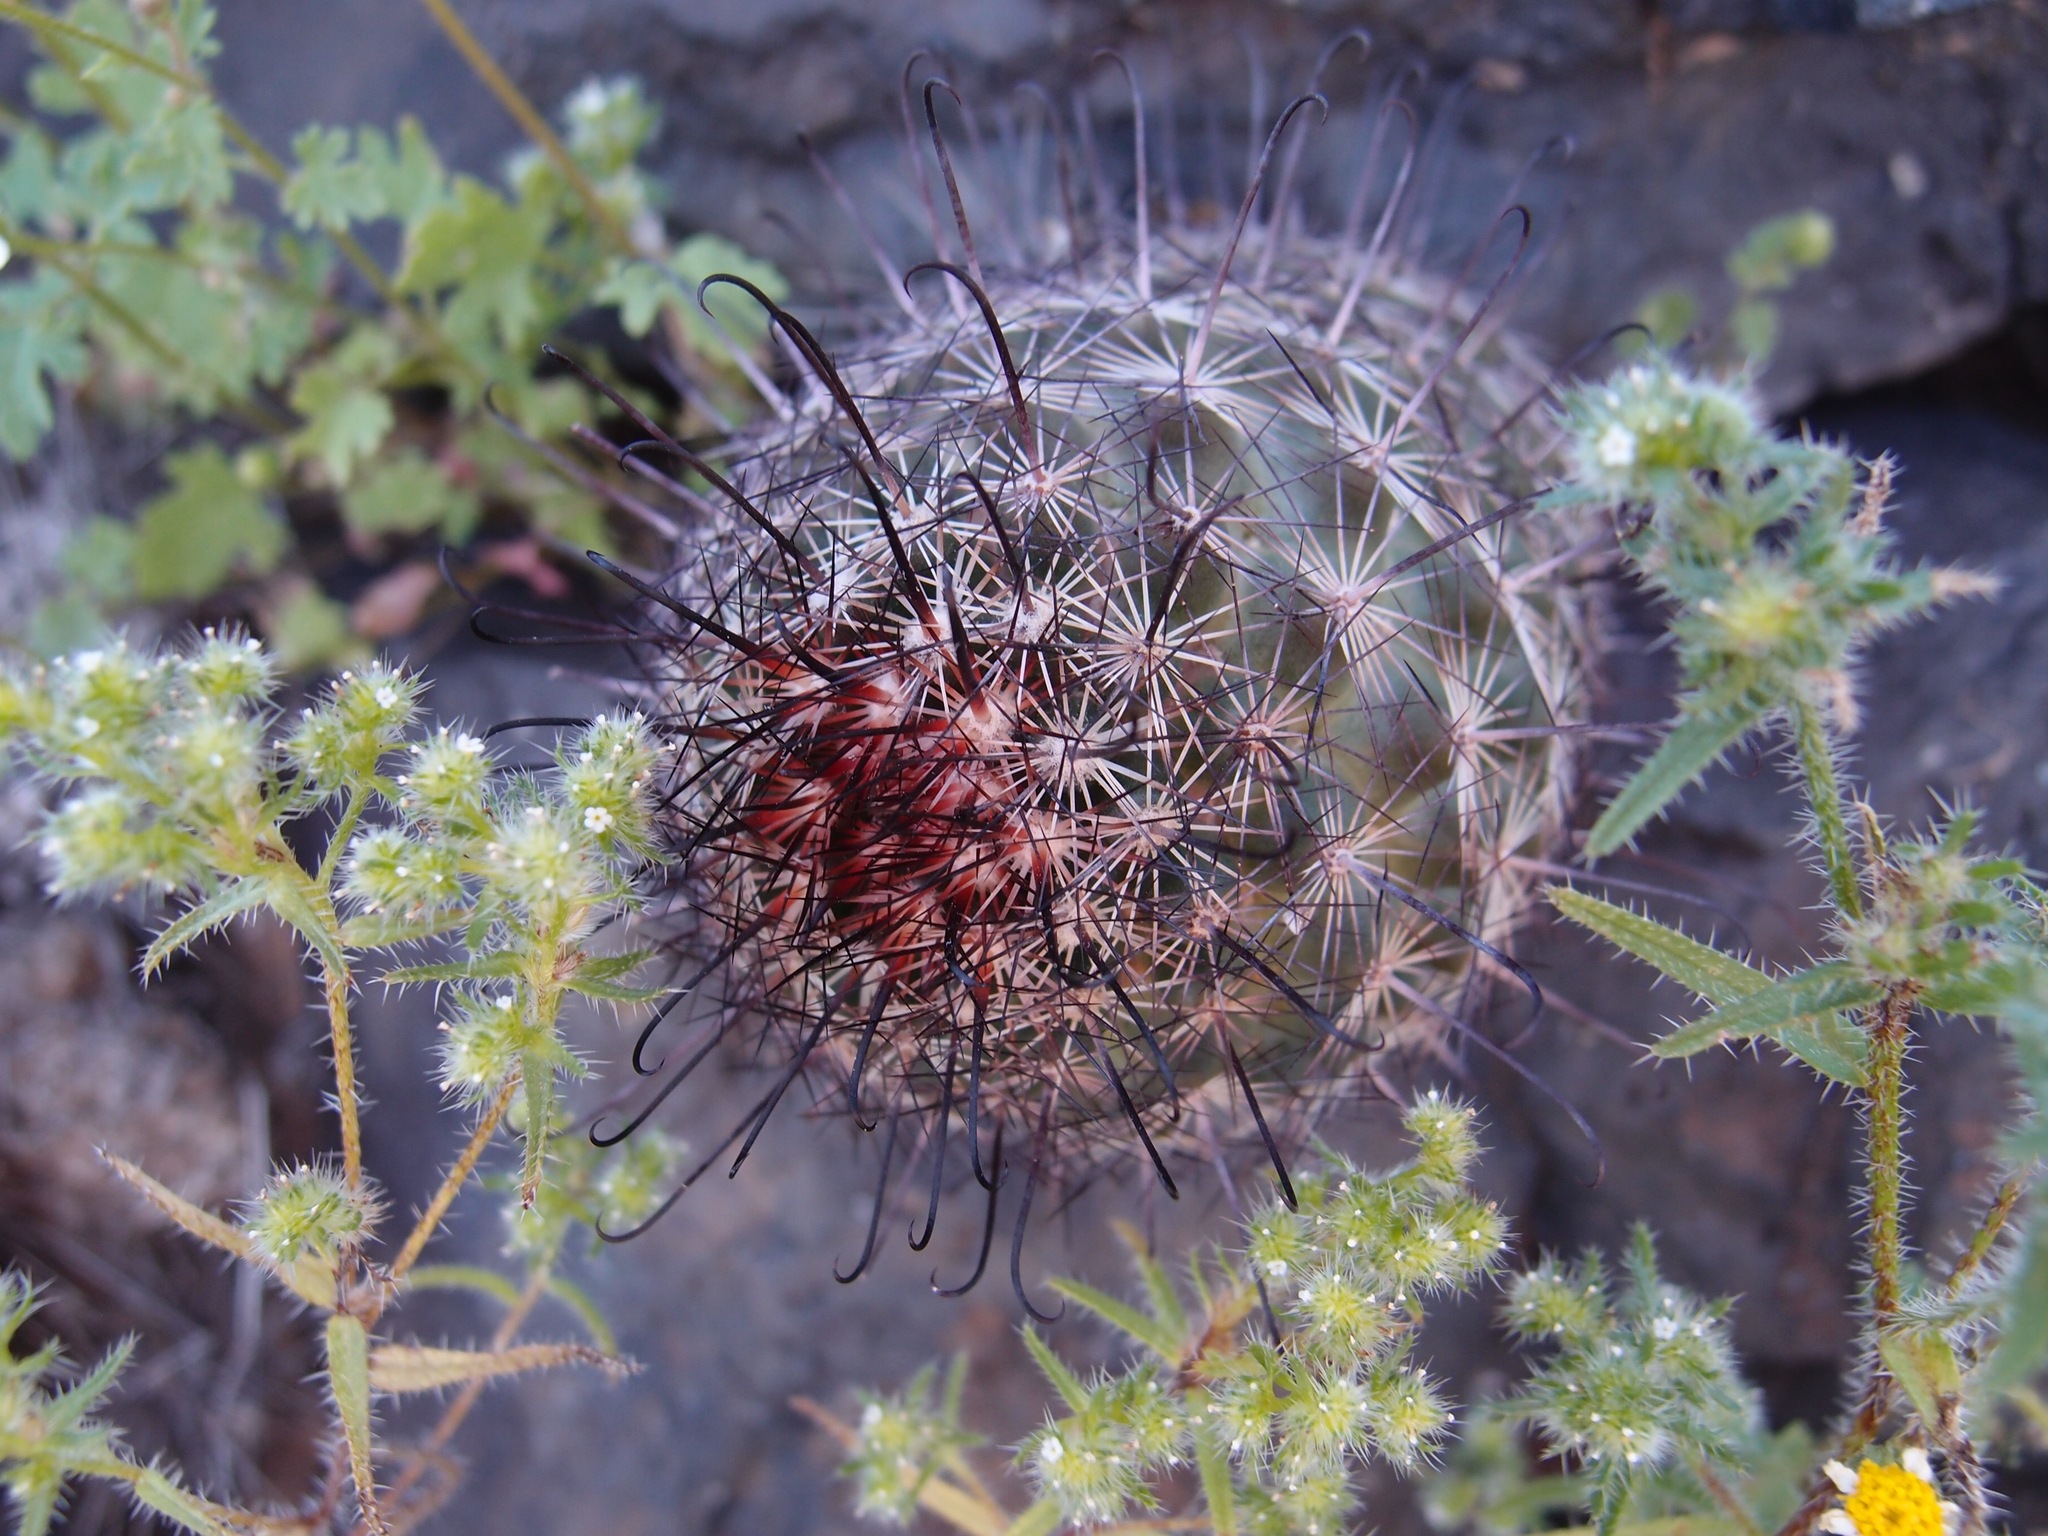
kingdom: Plantae
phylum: Tracheophyta
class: Magnoliopsida
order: Caryophyllales
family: Cactaceae
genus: Cochemiea
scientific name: Cochemiea grahamii
